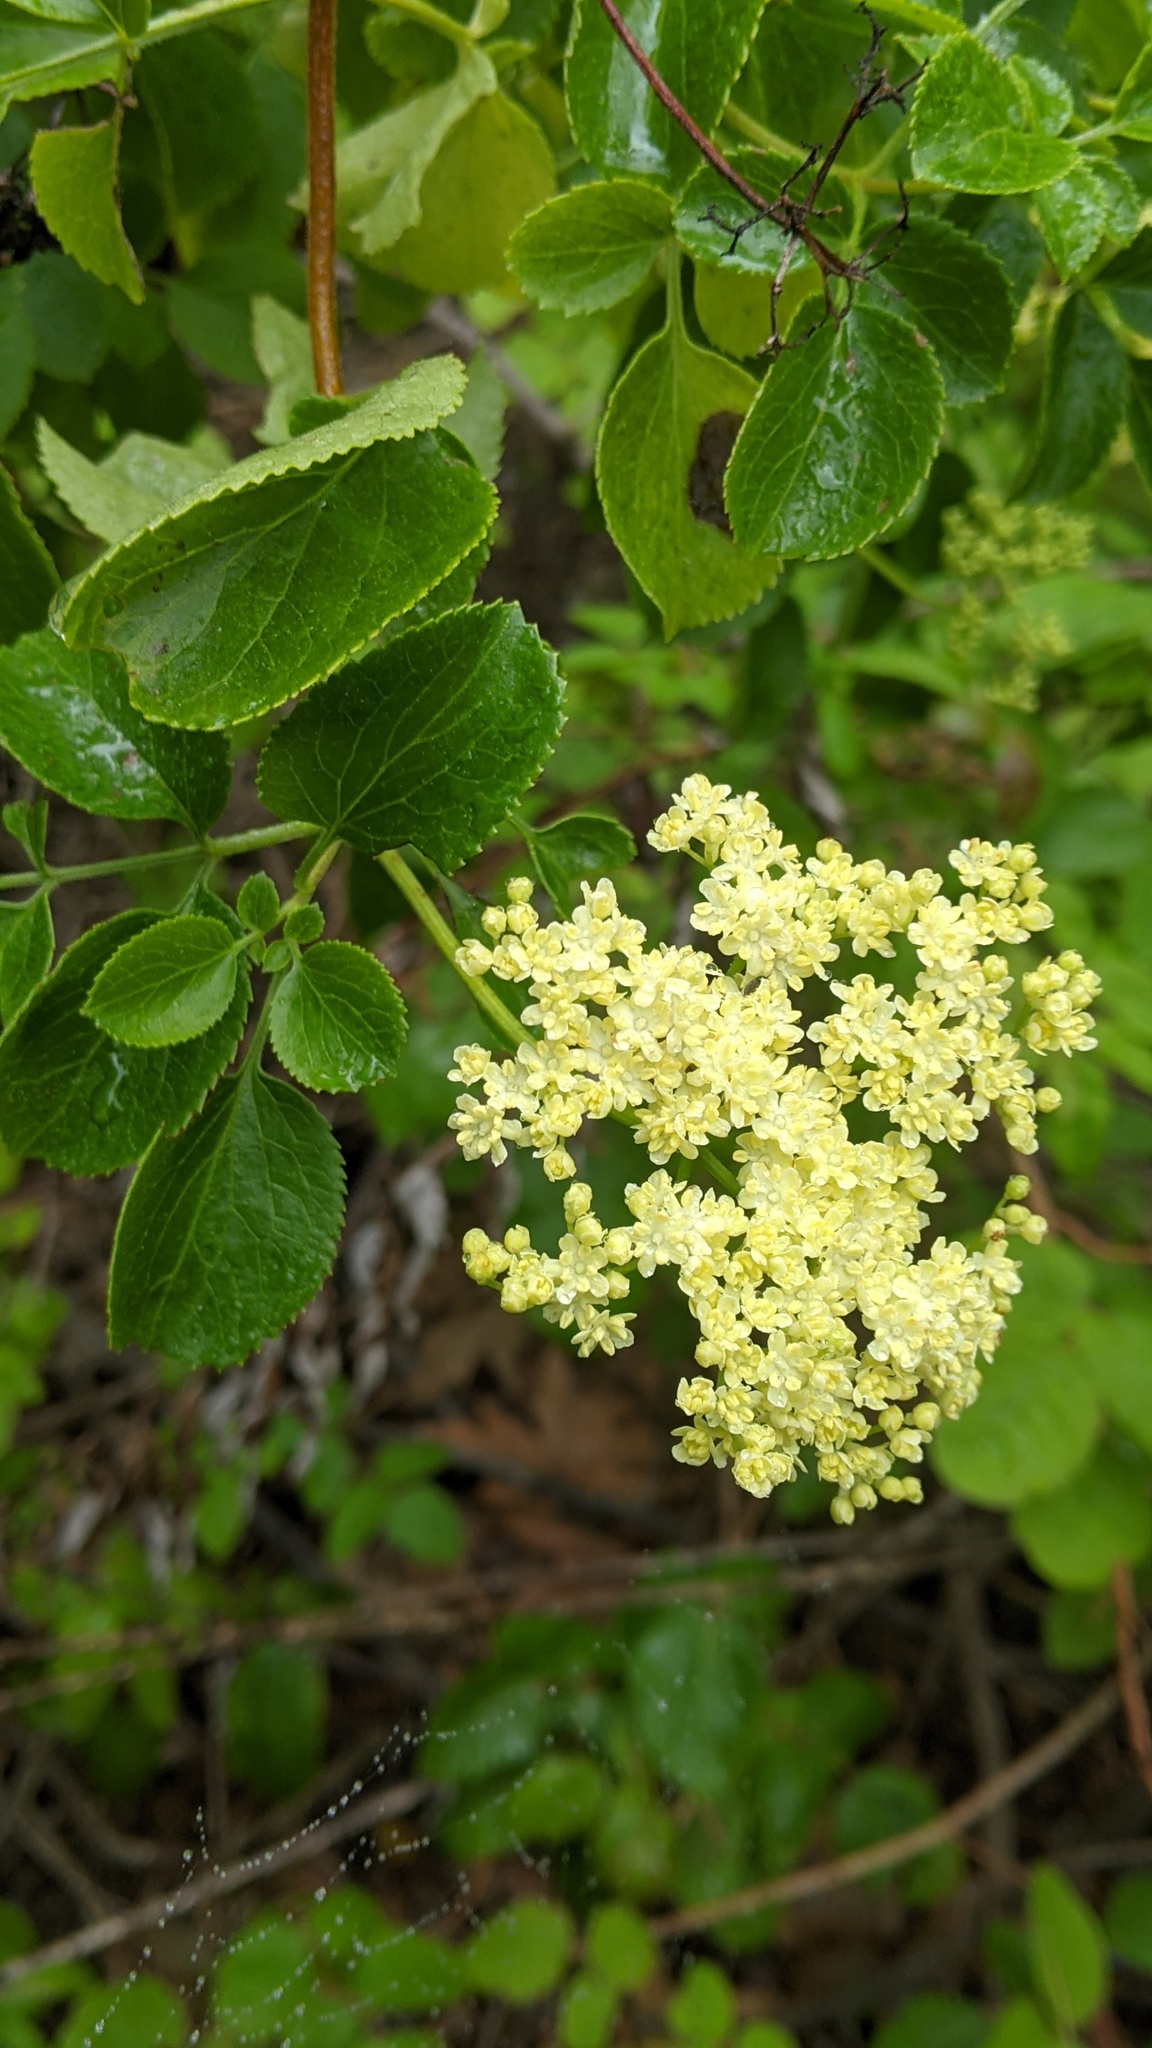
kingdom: Plantae
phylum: Tracheophyta
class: Magnoliopsida
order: Dipsacales
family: Viburnaceae
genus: Sambucus
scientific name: Sambucus cerulea
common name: Blue elder
